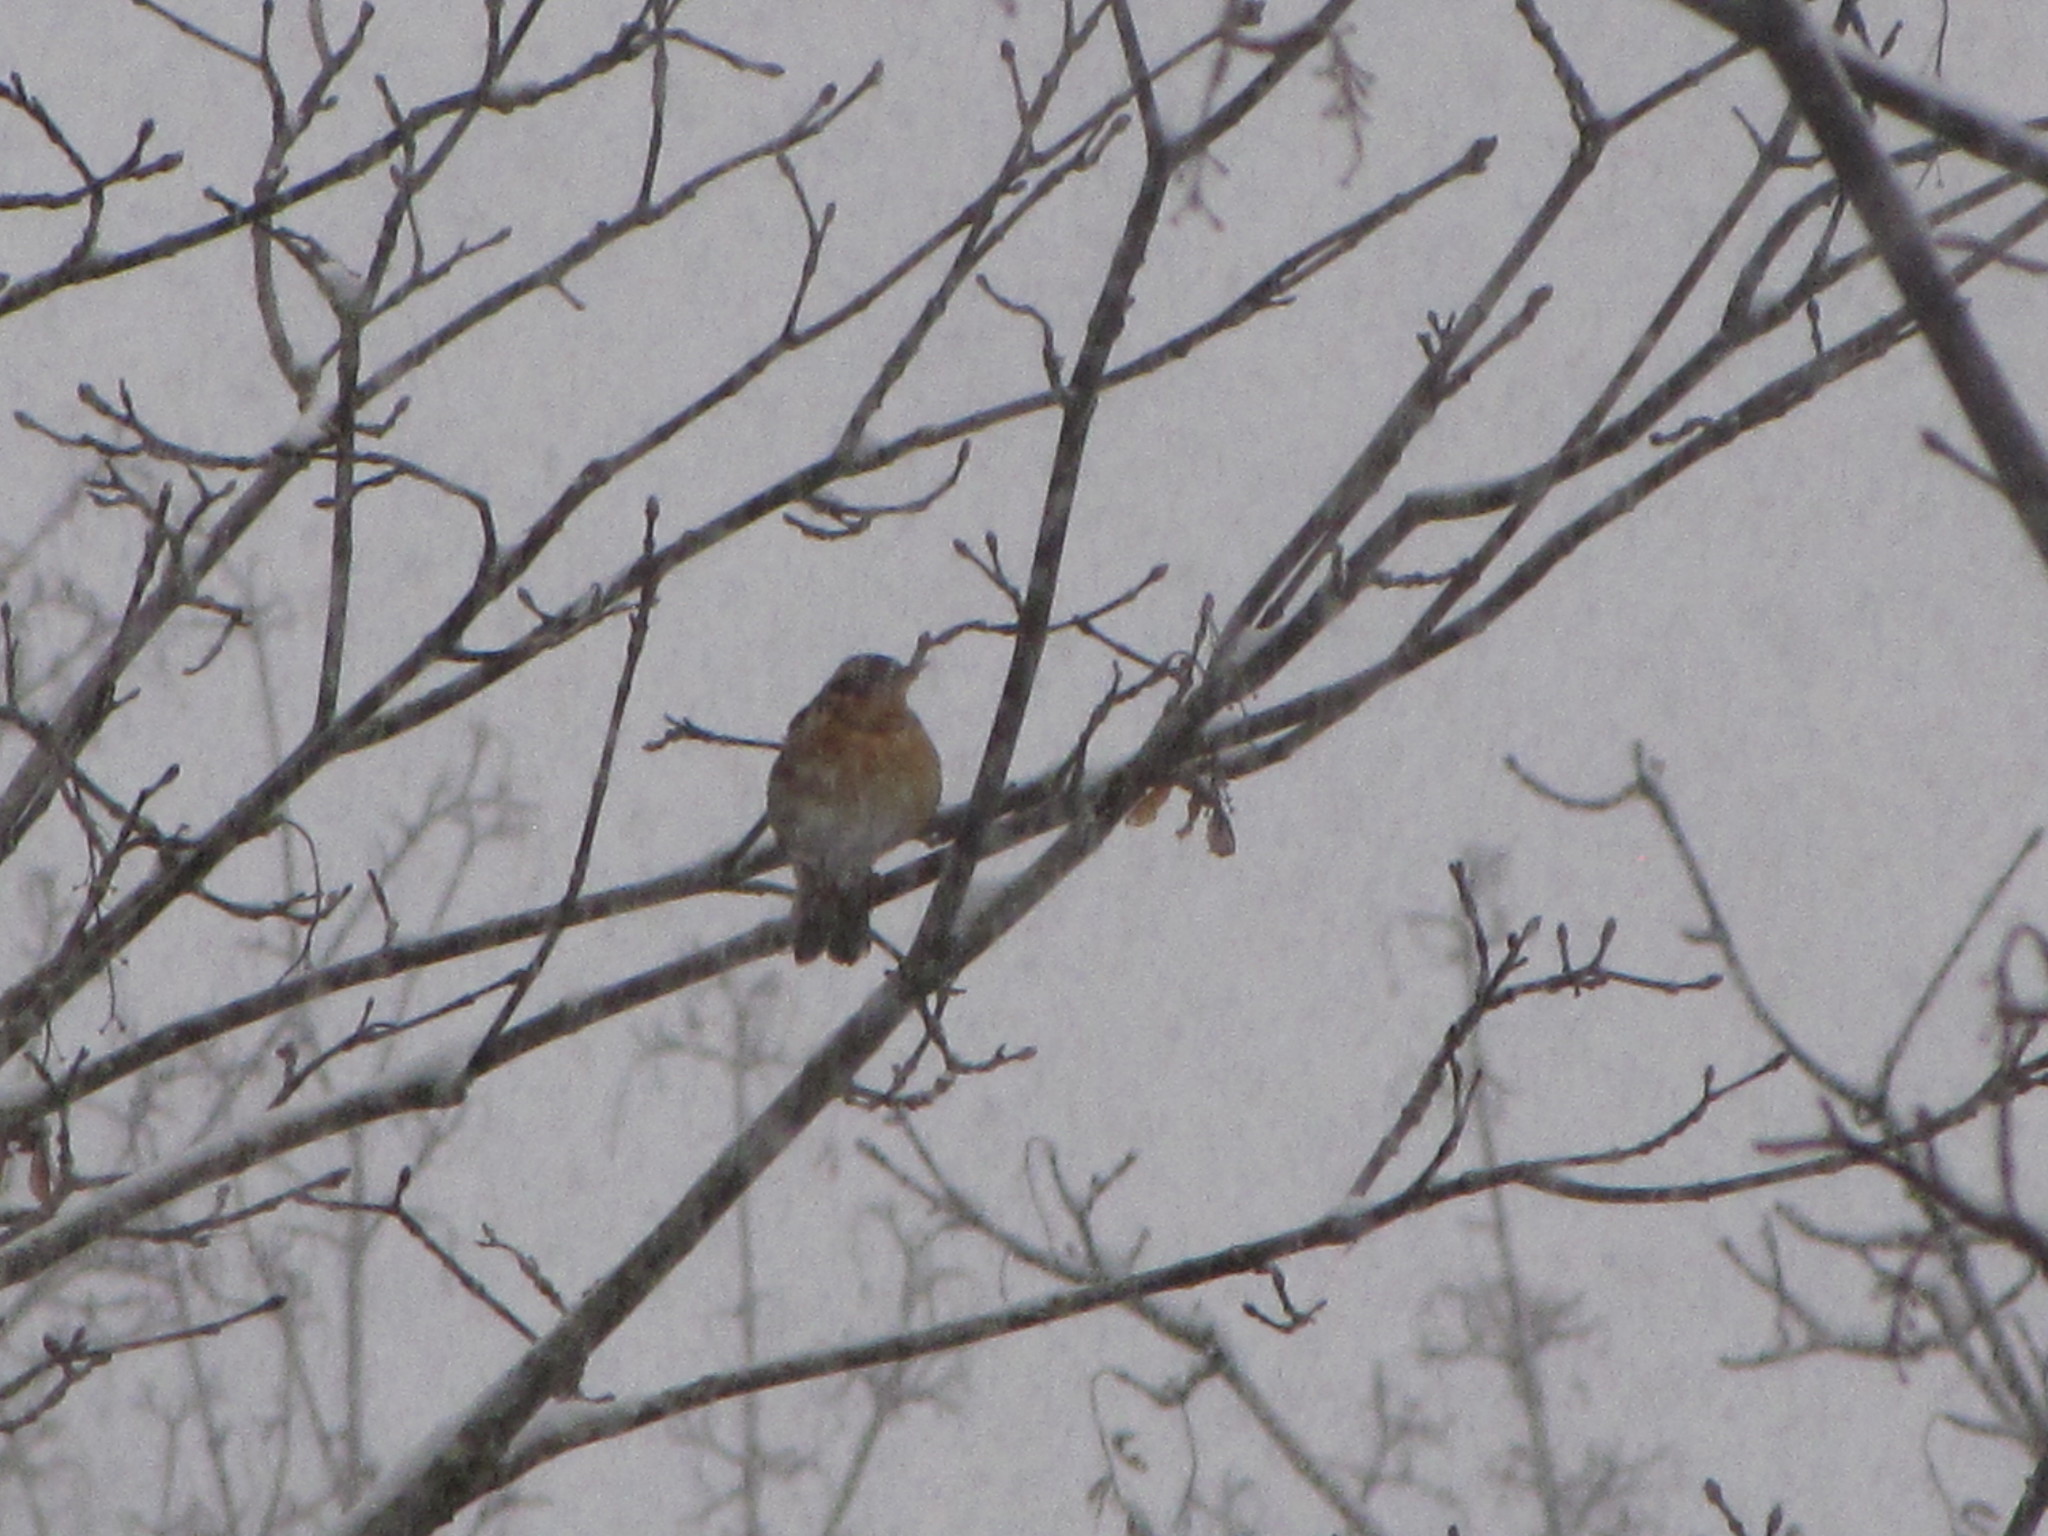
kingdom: Animalia
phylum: Chordata
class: Aves
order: Passeriformes
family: Turdidae
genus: Ixoreus
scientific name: Ixoreus naevius
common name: Varied thrush
